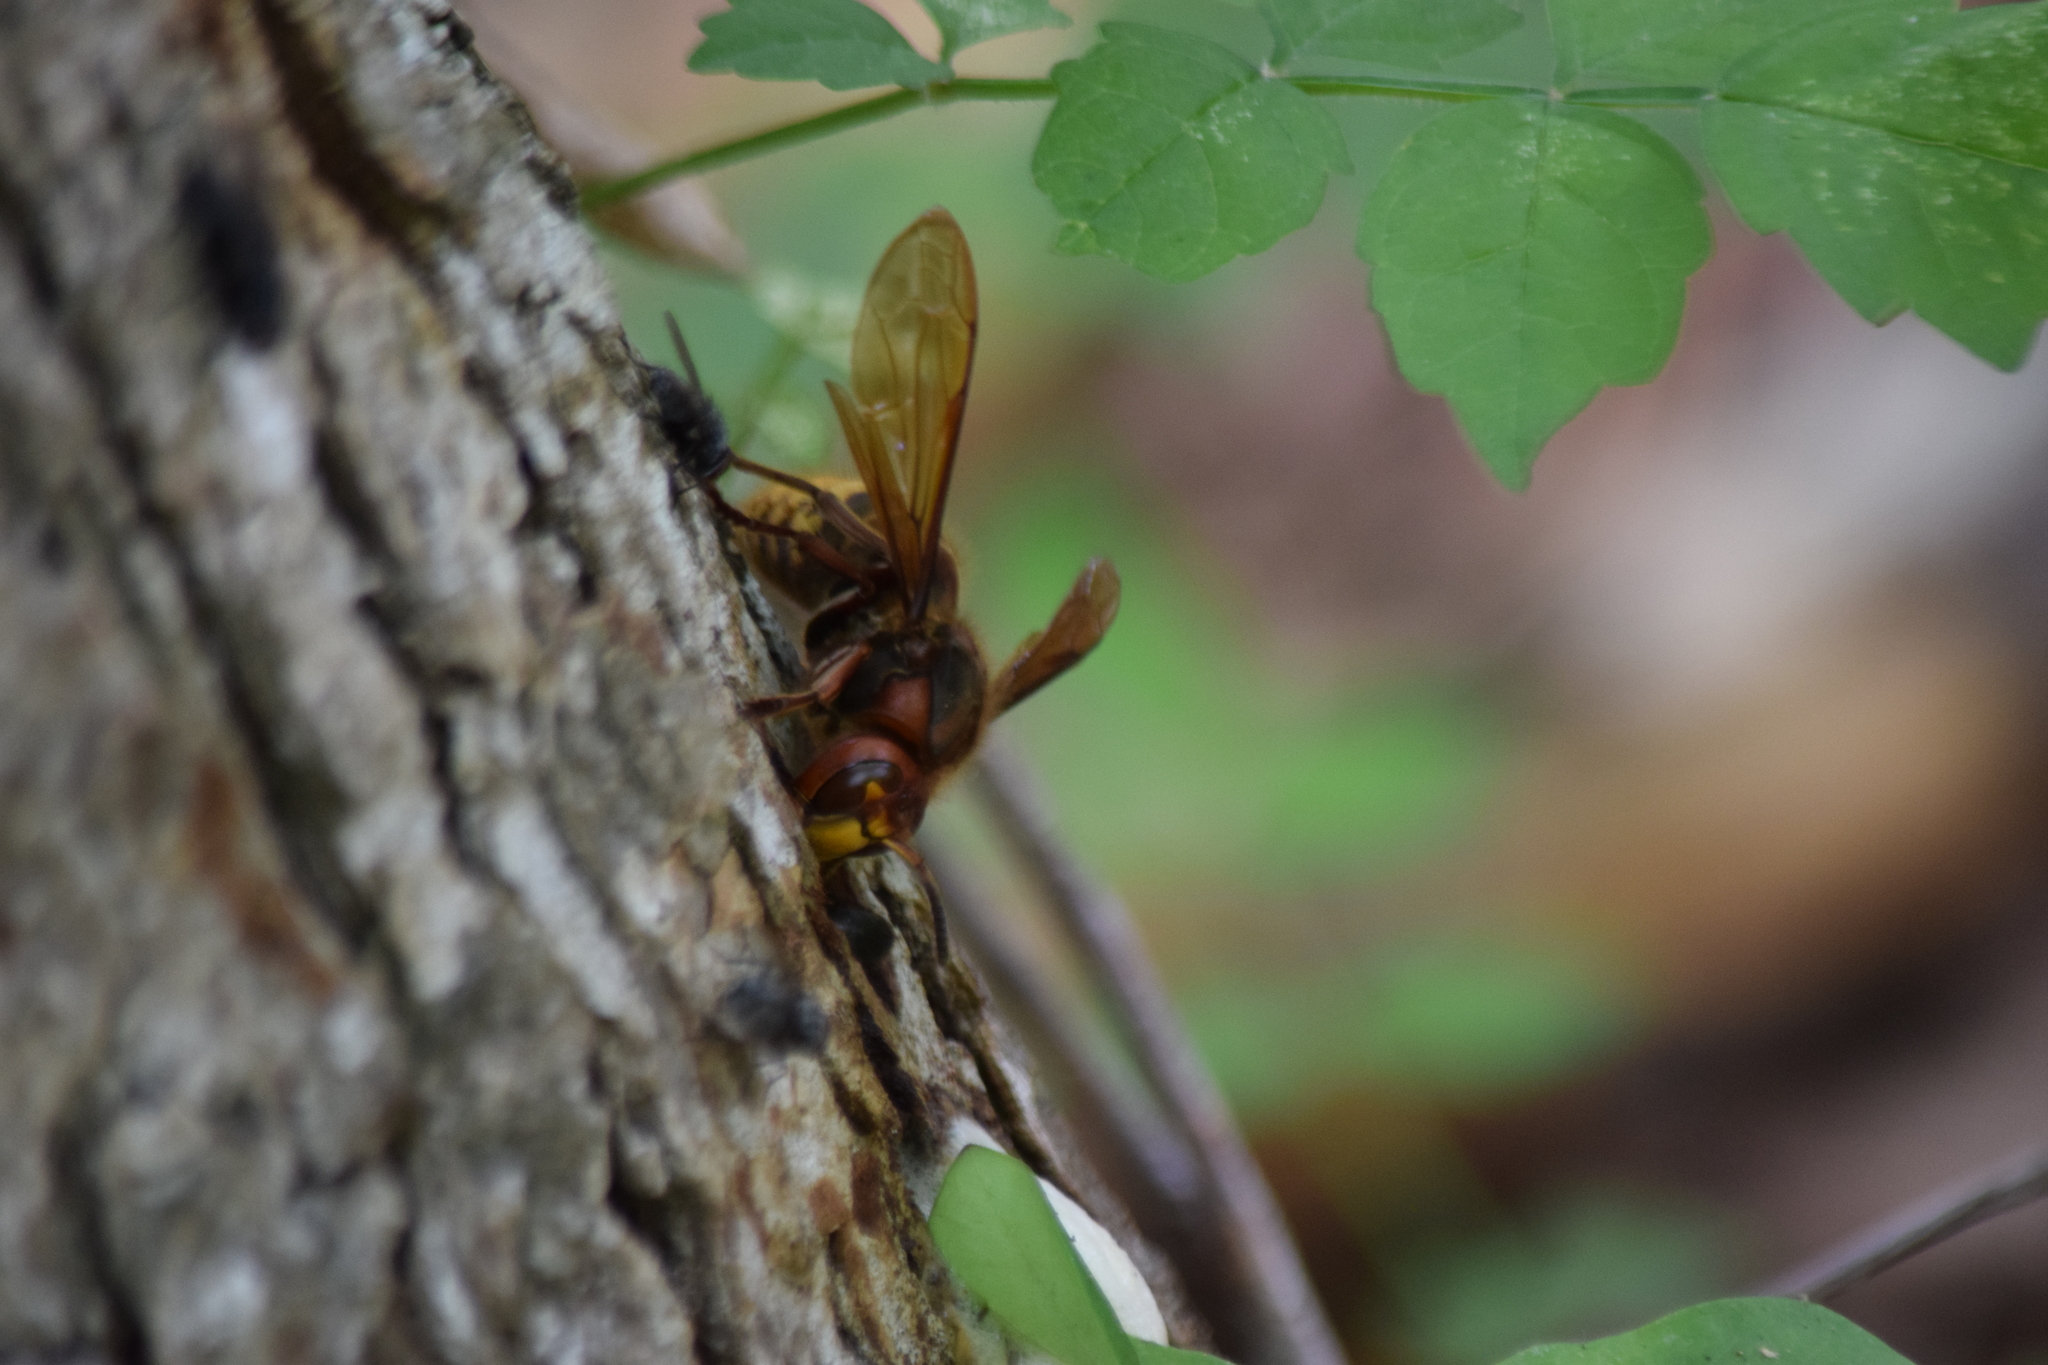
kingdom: Animalia
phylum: Arthropoda
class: Insecta
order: Hymenoptera
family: Vespidae
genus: Vespa
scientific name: Vespa crabro
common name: Hornet
